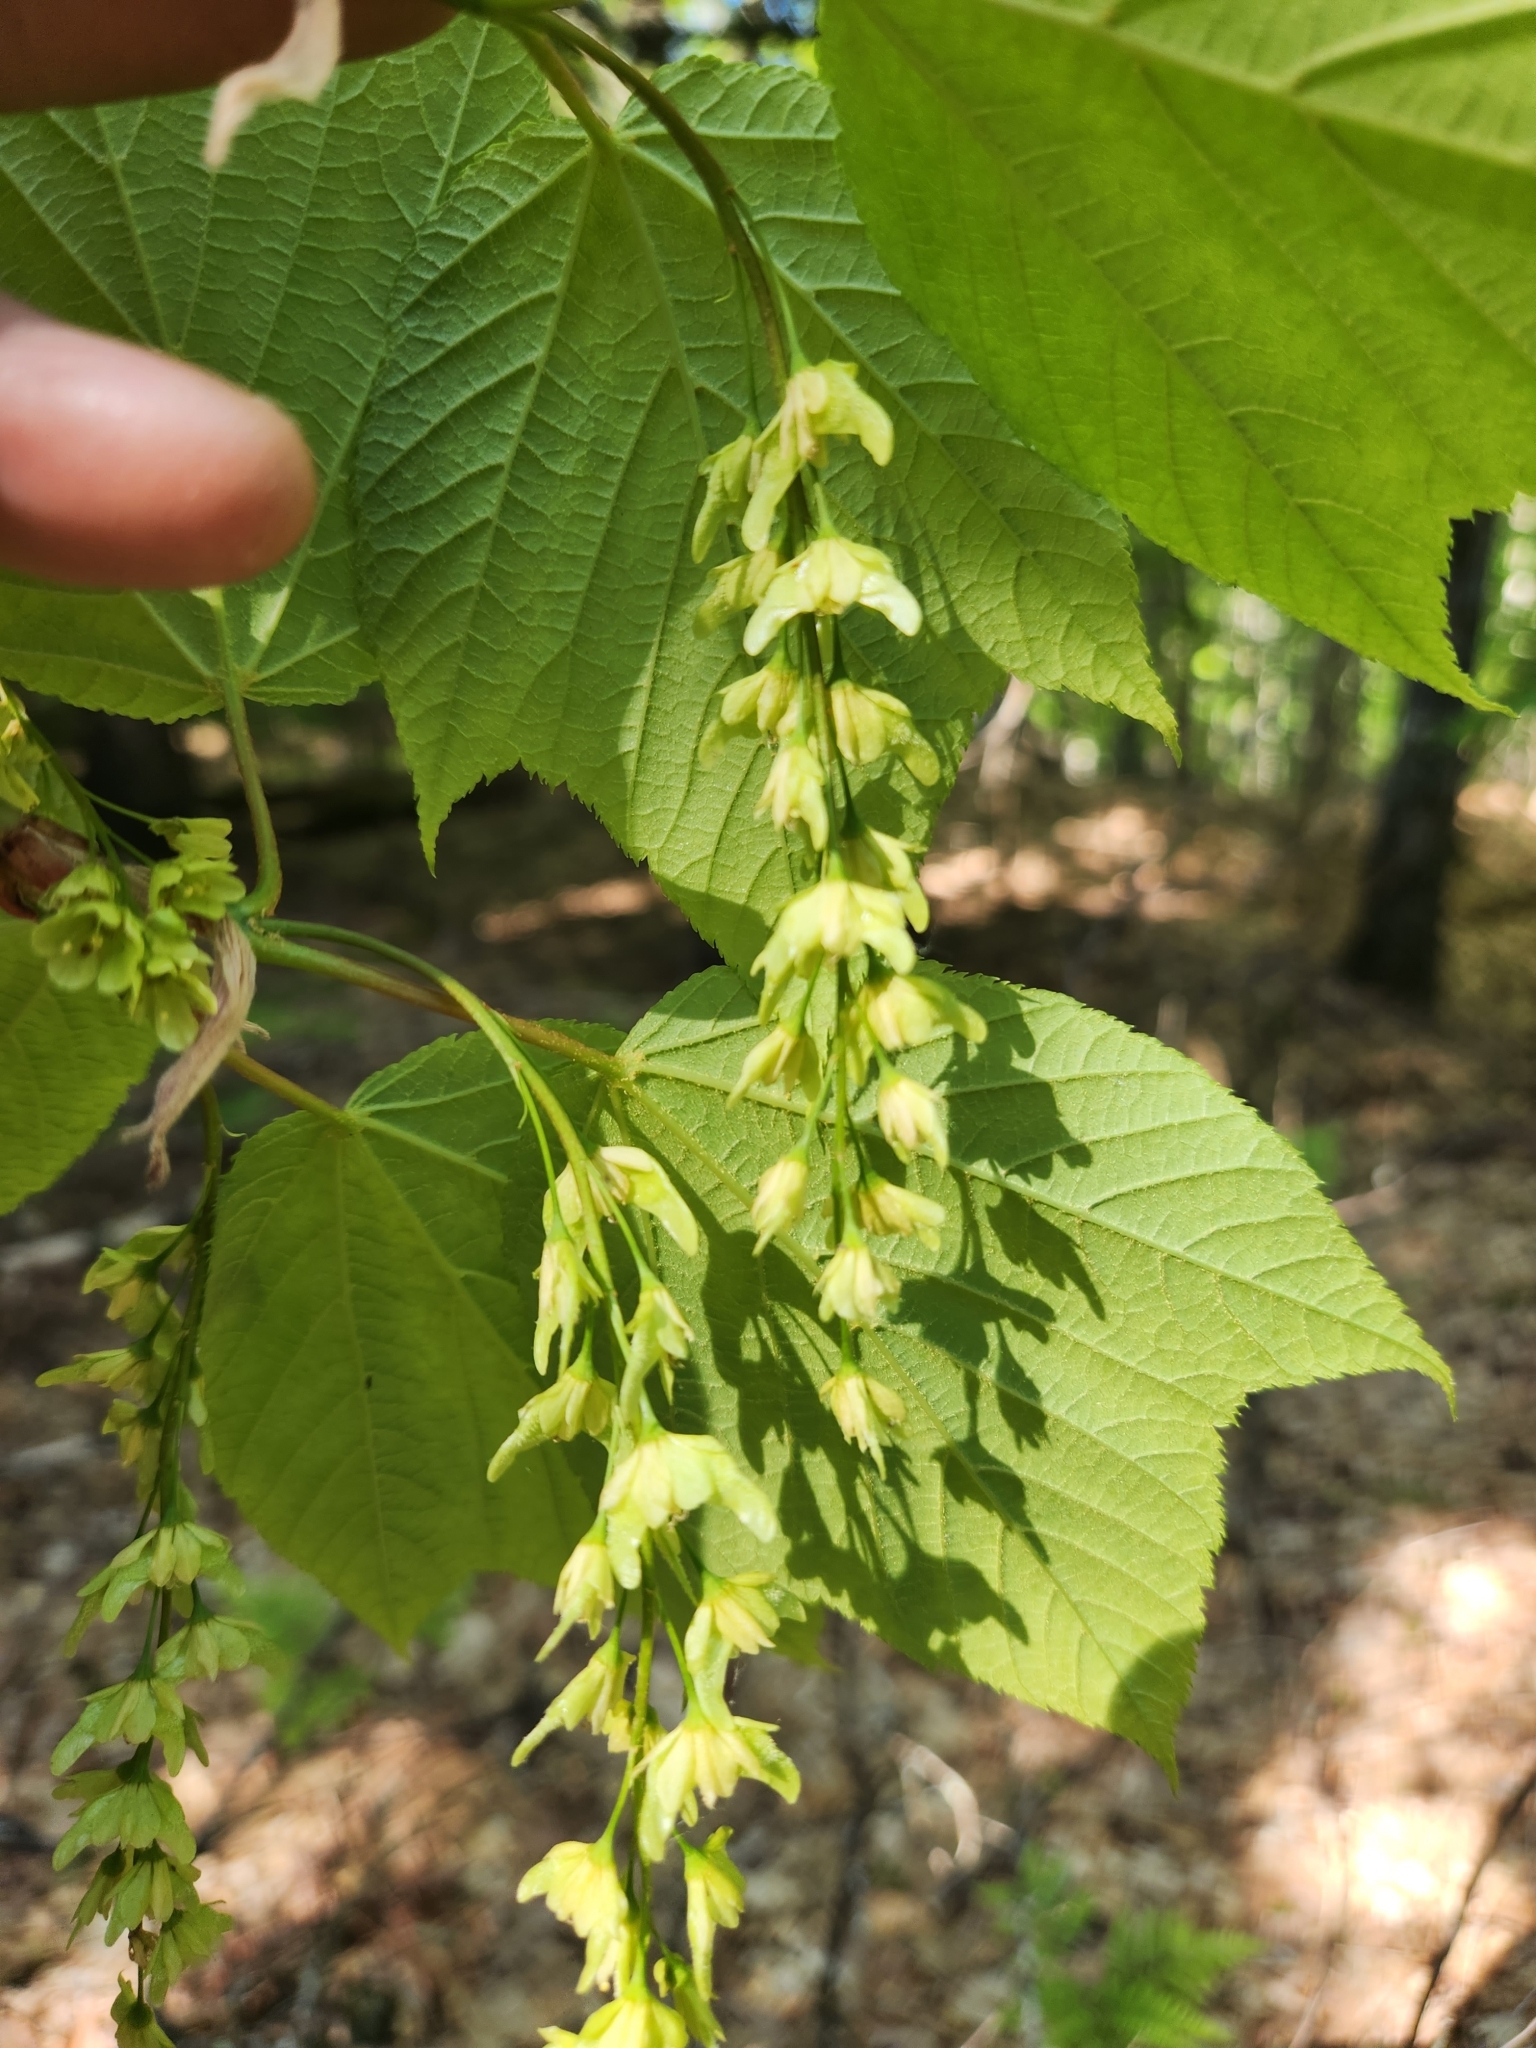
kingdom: Plantae
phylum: Tracheophyta
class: Magnoliopsida
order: Sapindales
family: Sapindaceae
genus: Acer
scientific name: Acer pensylvanicum
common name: Moosewood
